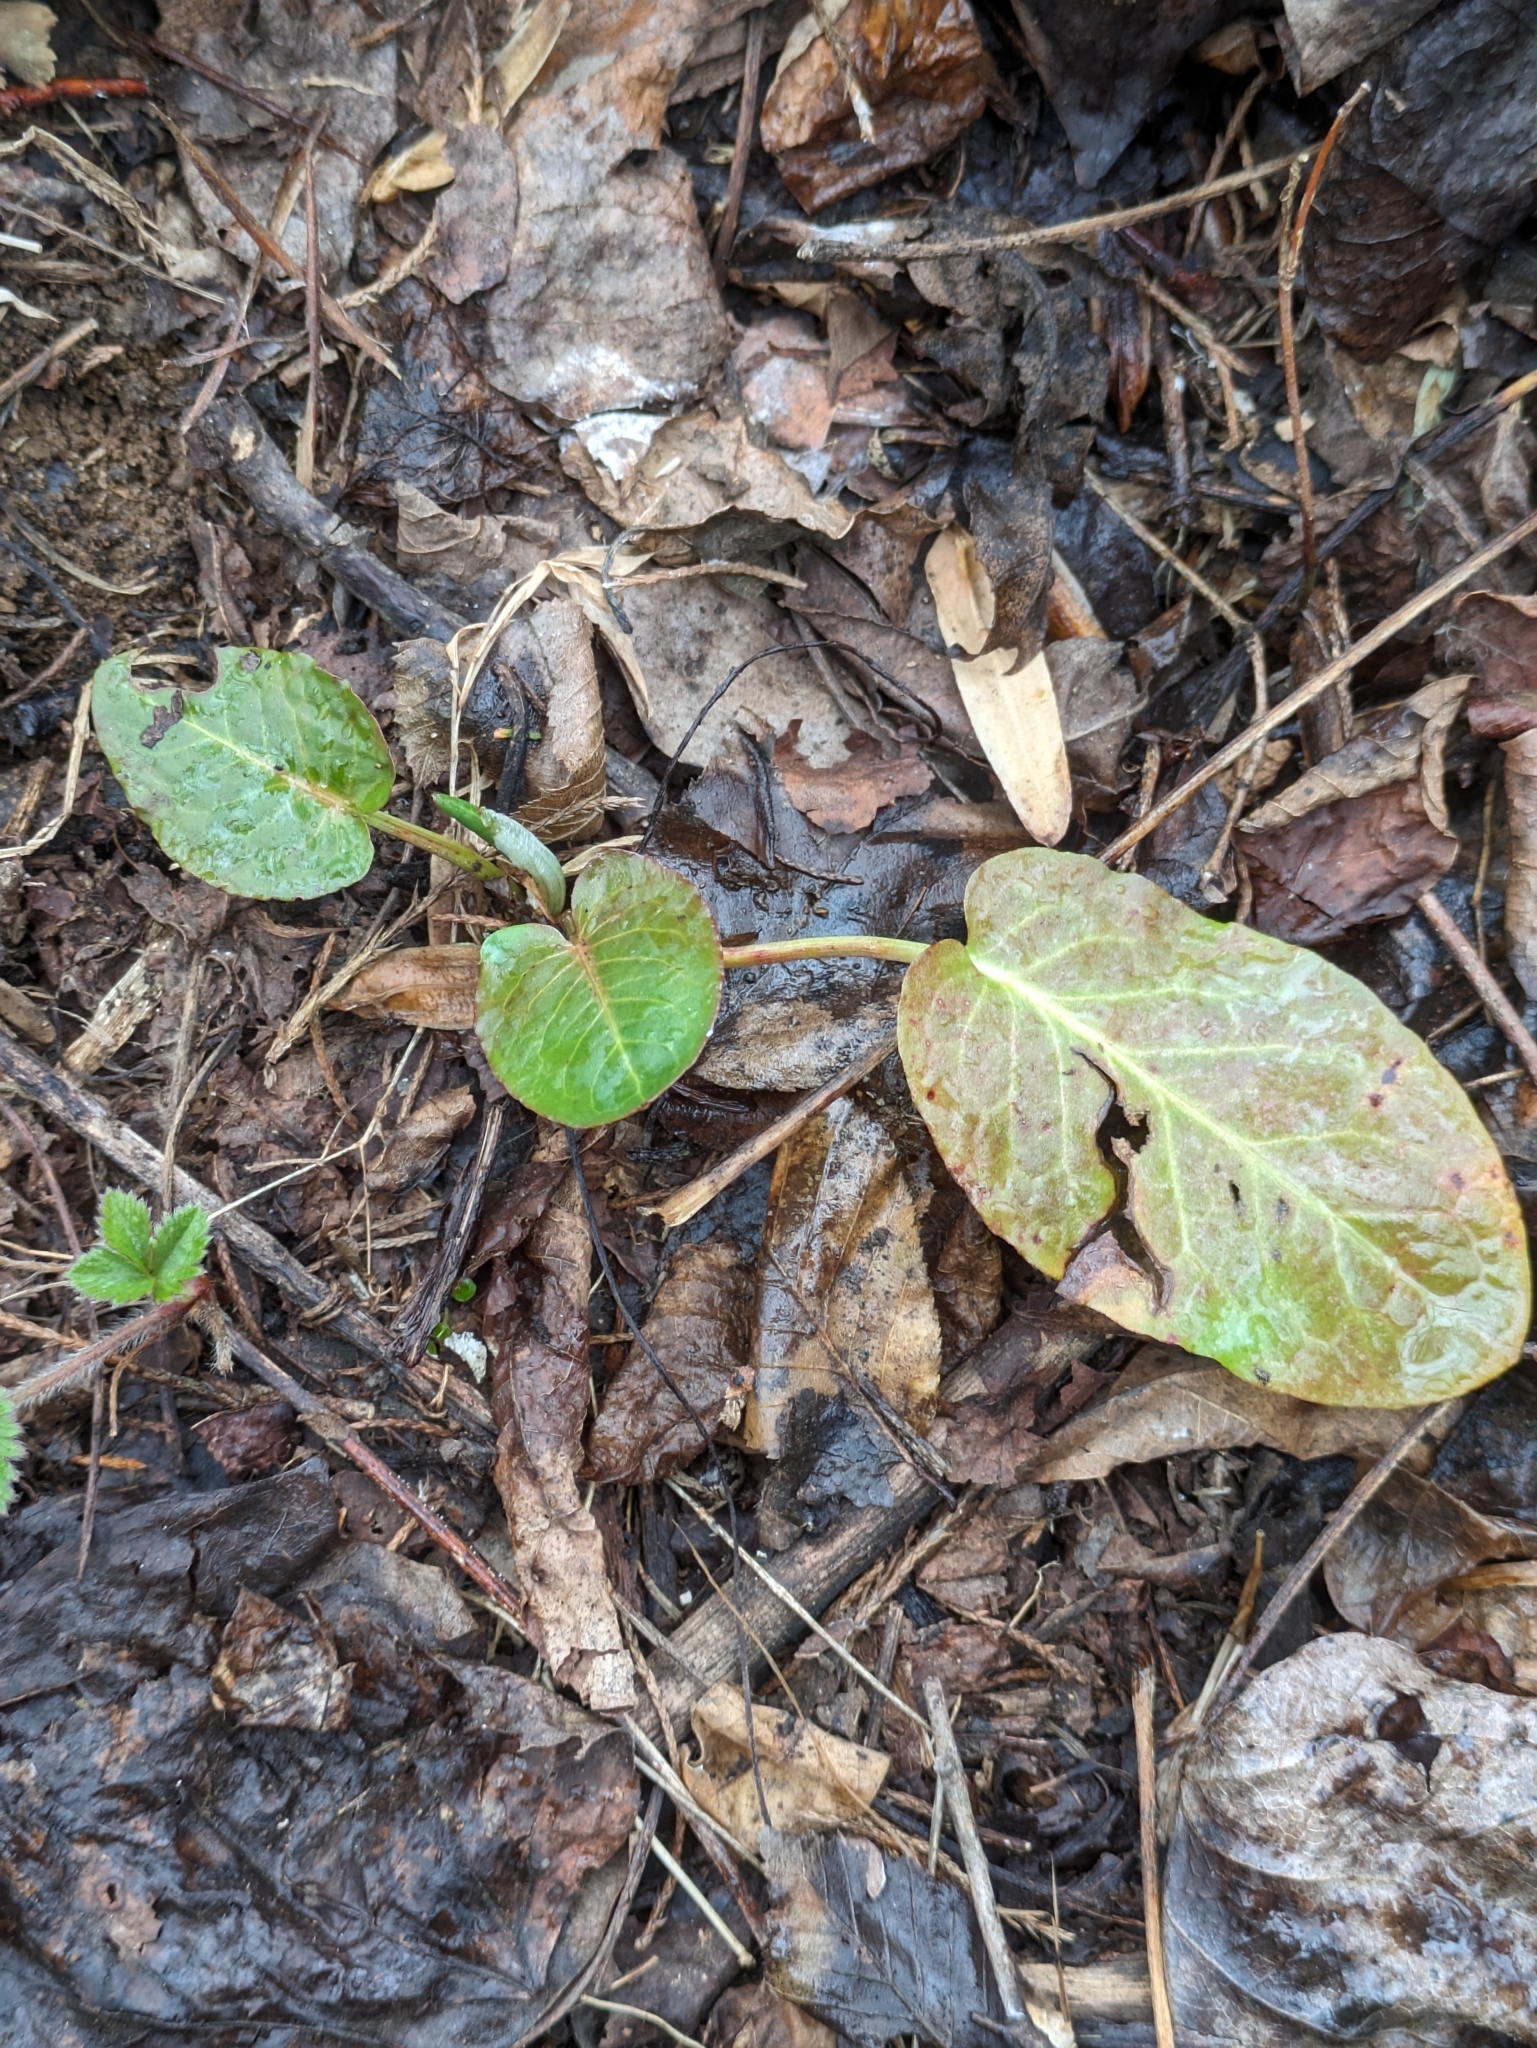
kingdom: Plantae
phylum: Tracheophyta
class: Magnoliopsida
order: Caryophyllales
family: Polygonaceae
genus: Rumex
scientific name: Rumex obtusifolius
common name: Bitter dock
